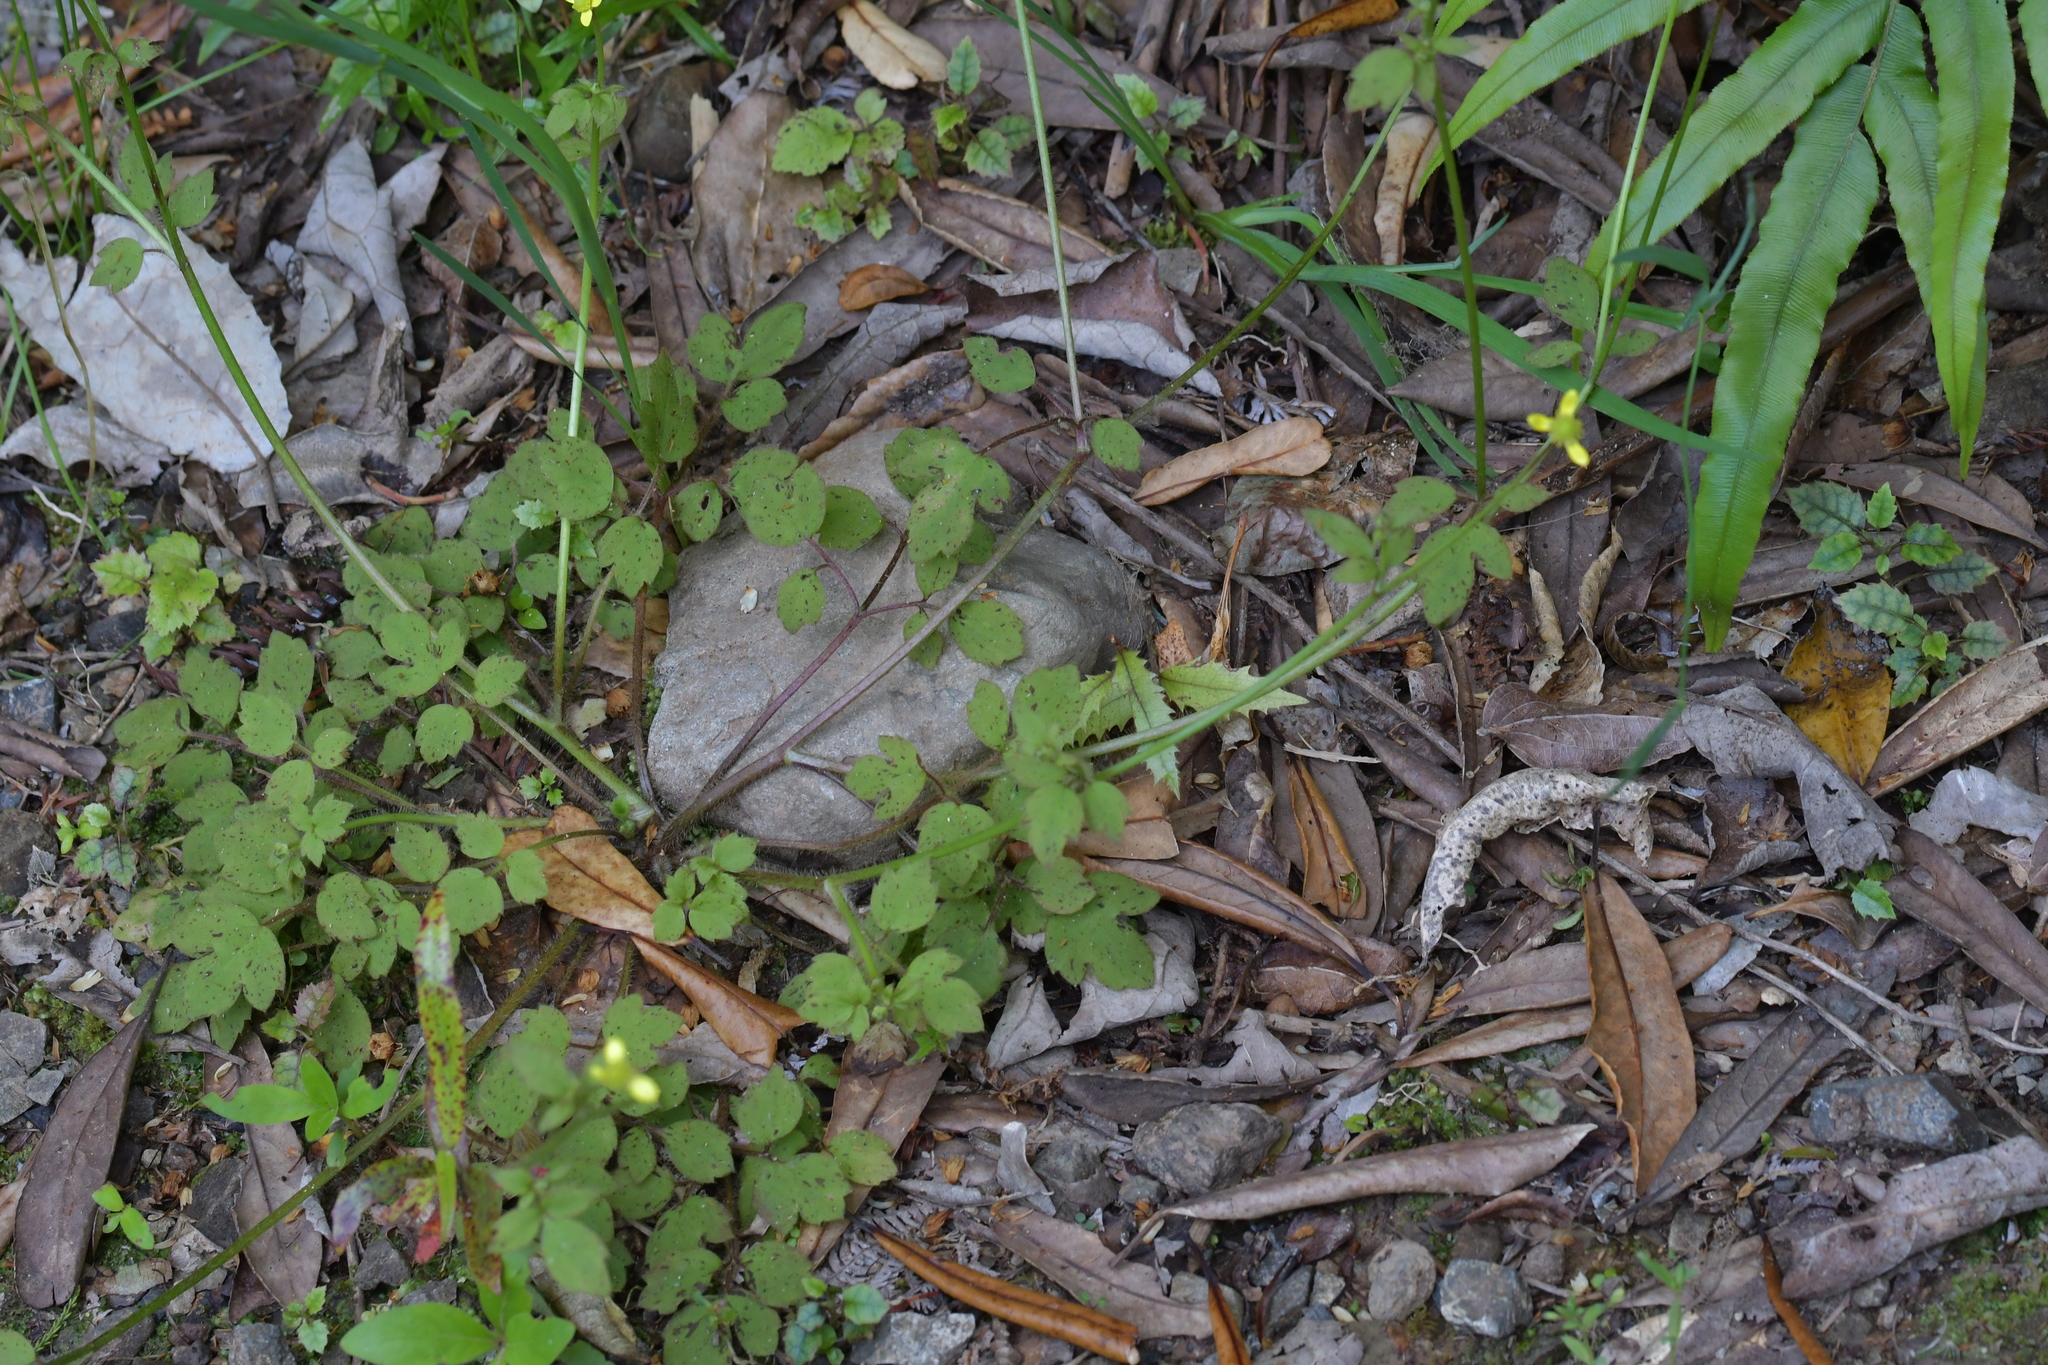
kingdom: Plantae
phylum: Tracheophyta
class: Magnoliopsida
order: Ranunculales
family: Ranunculaceae
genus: Ranunculus
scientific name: Ranunculus reflexus
